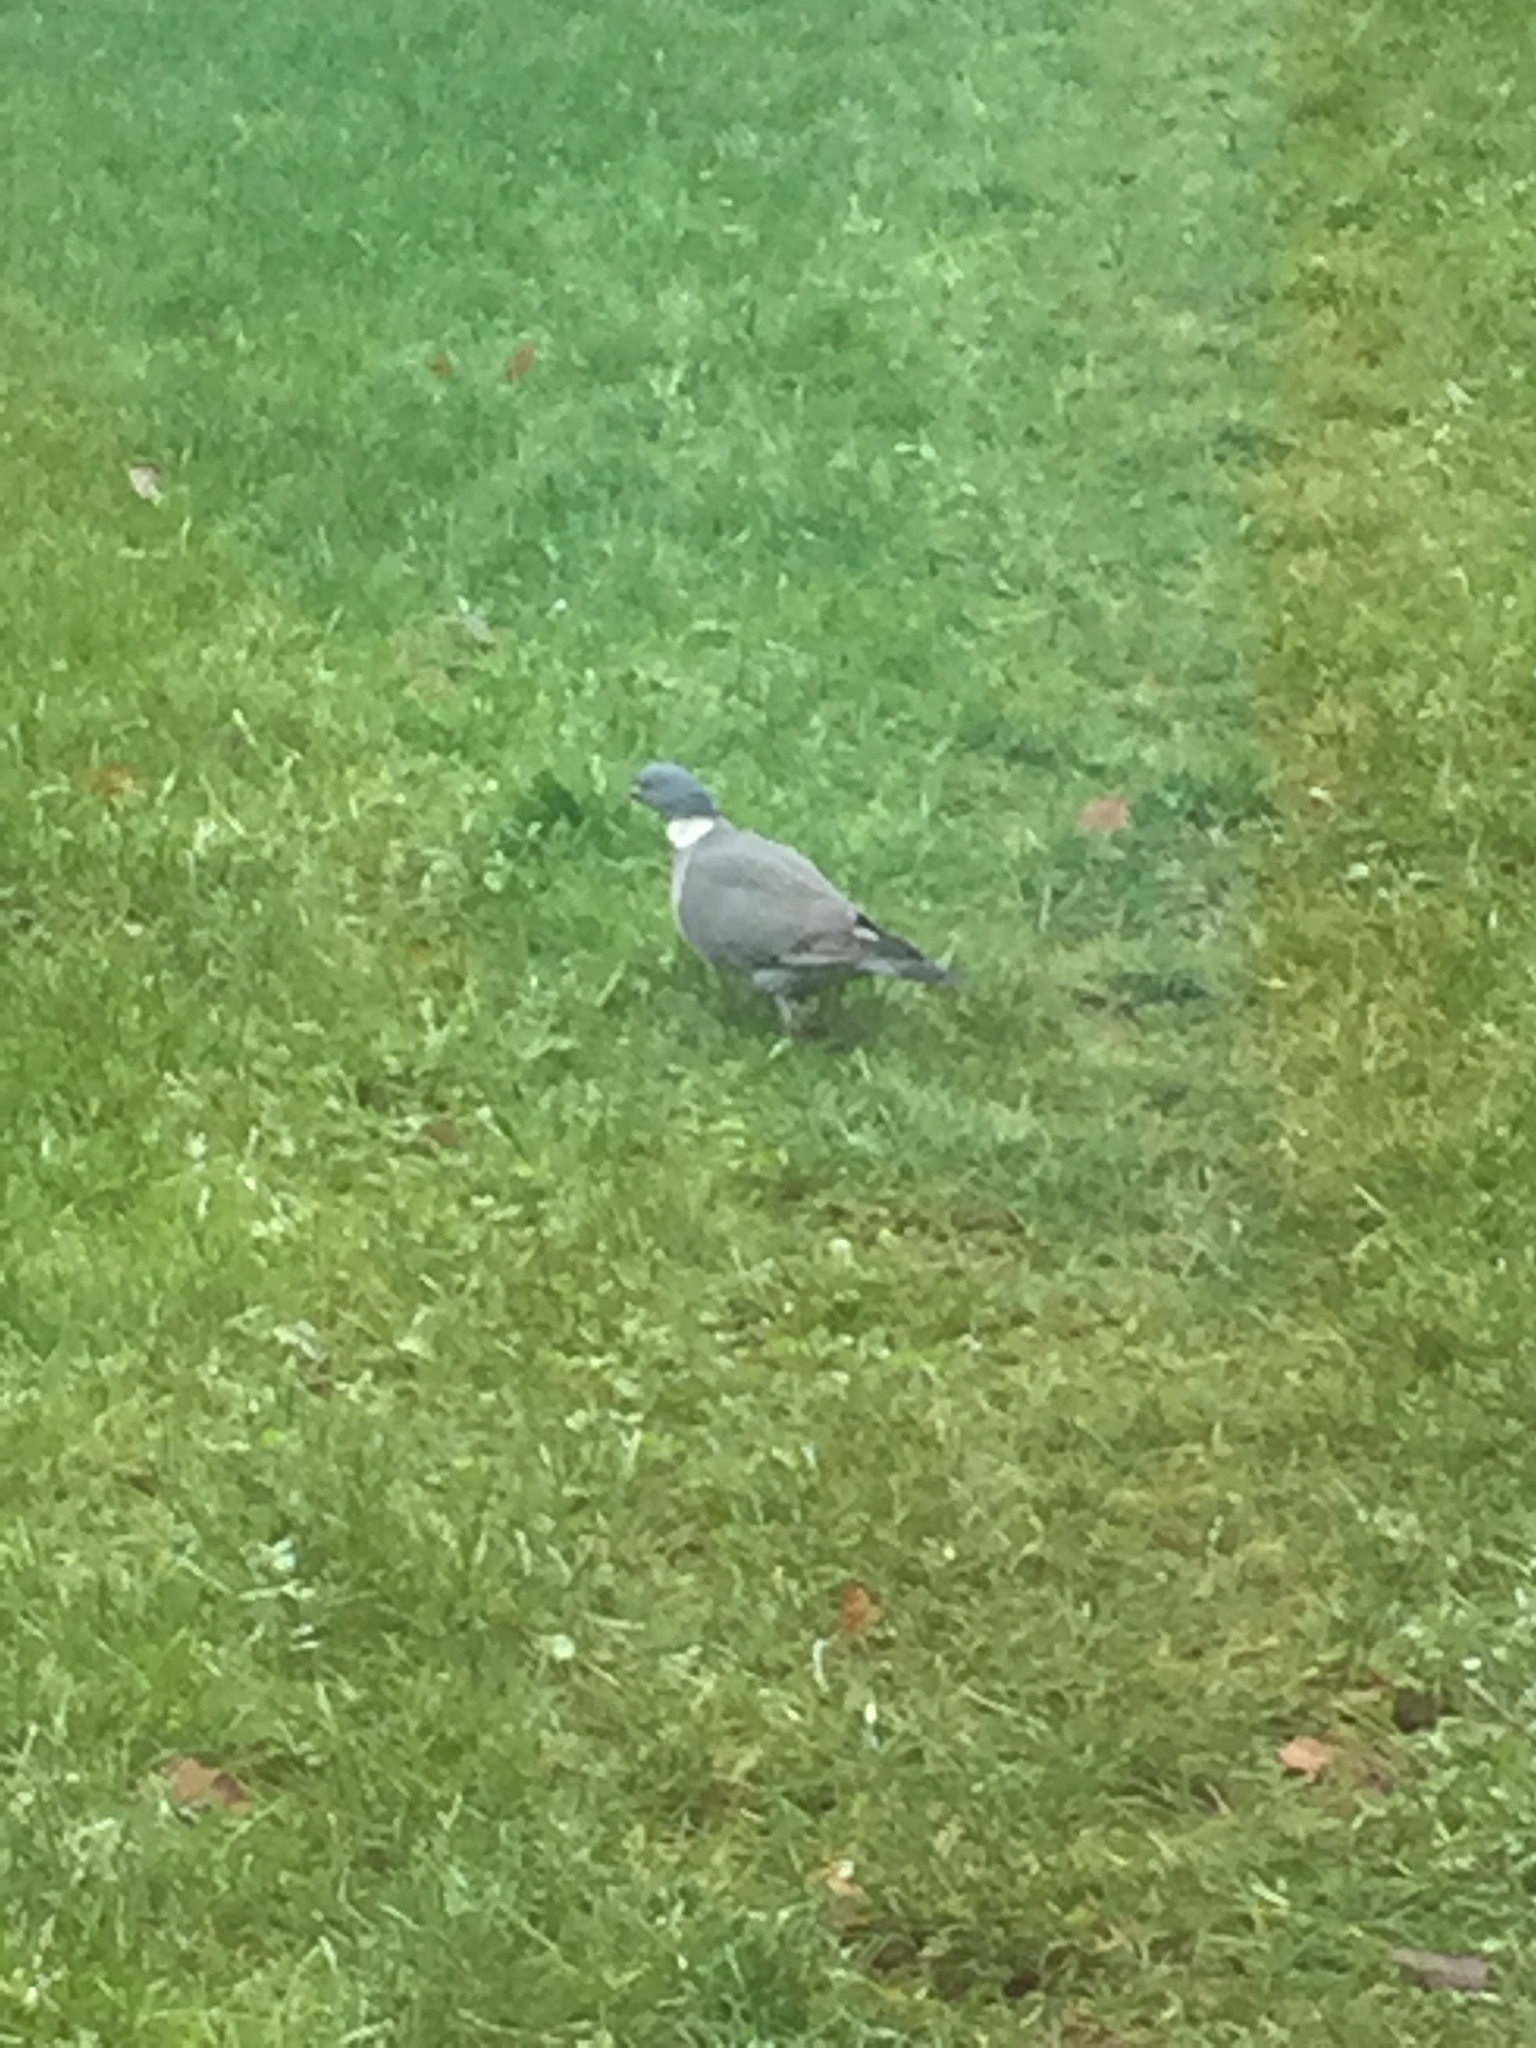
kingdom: Animalia
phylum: Chordata
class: Aves
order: Columbiformes
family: Columbidae
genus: Columba
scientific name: Columba palumbus
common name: Common wood pigeon
